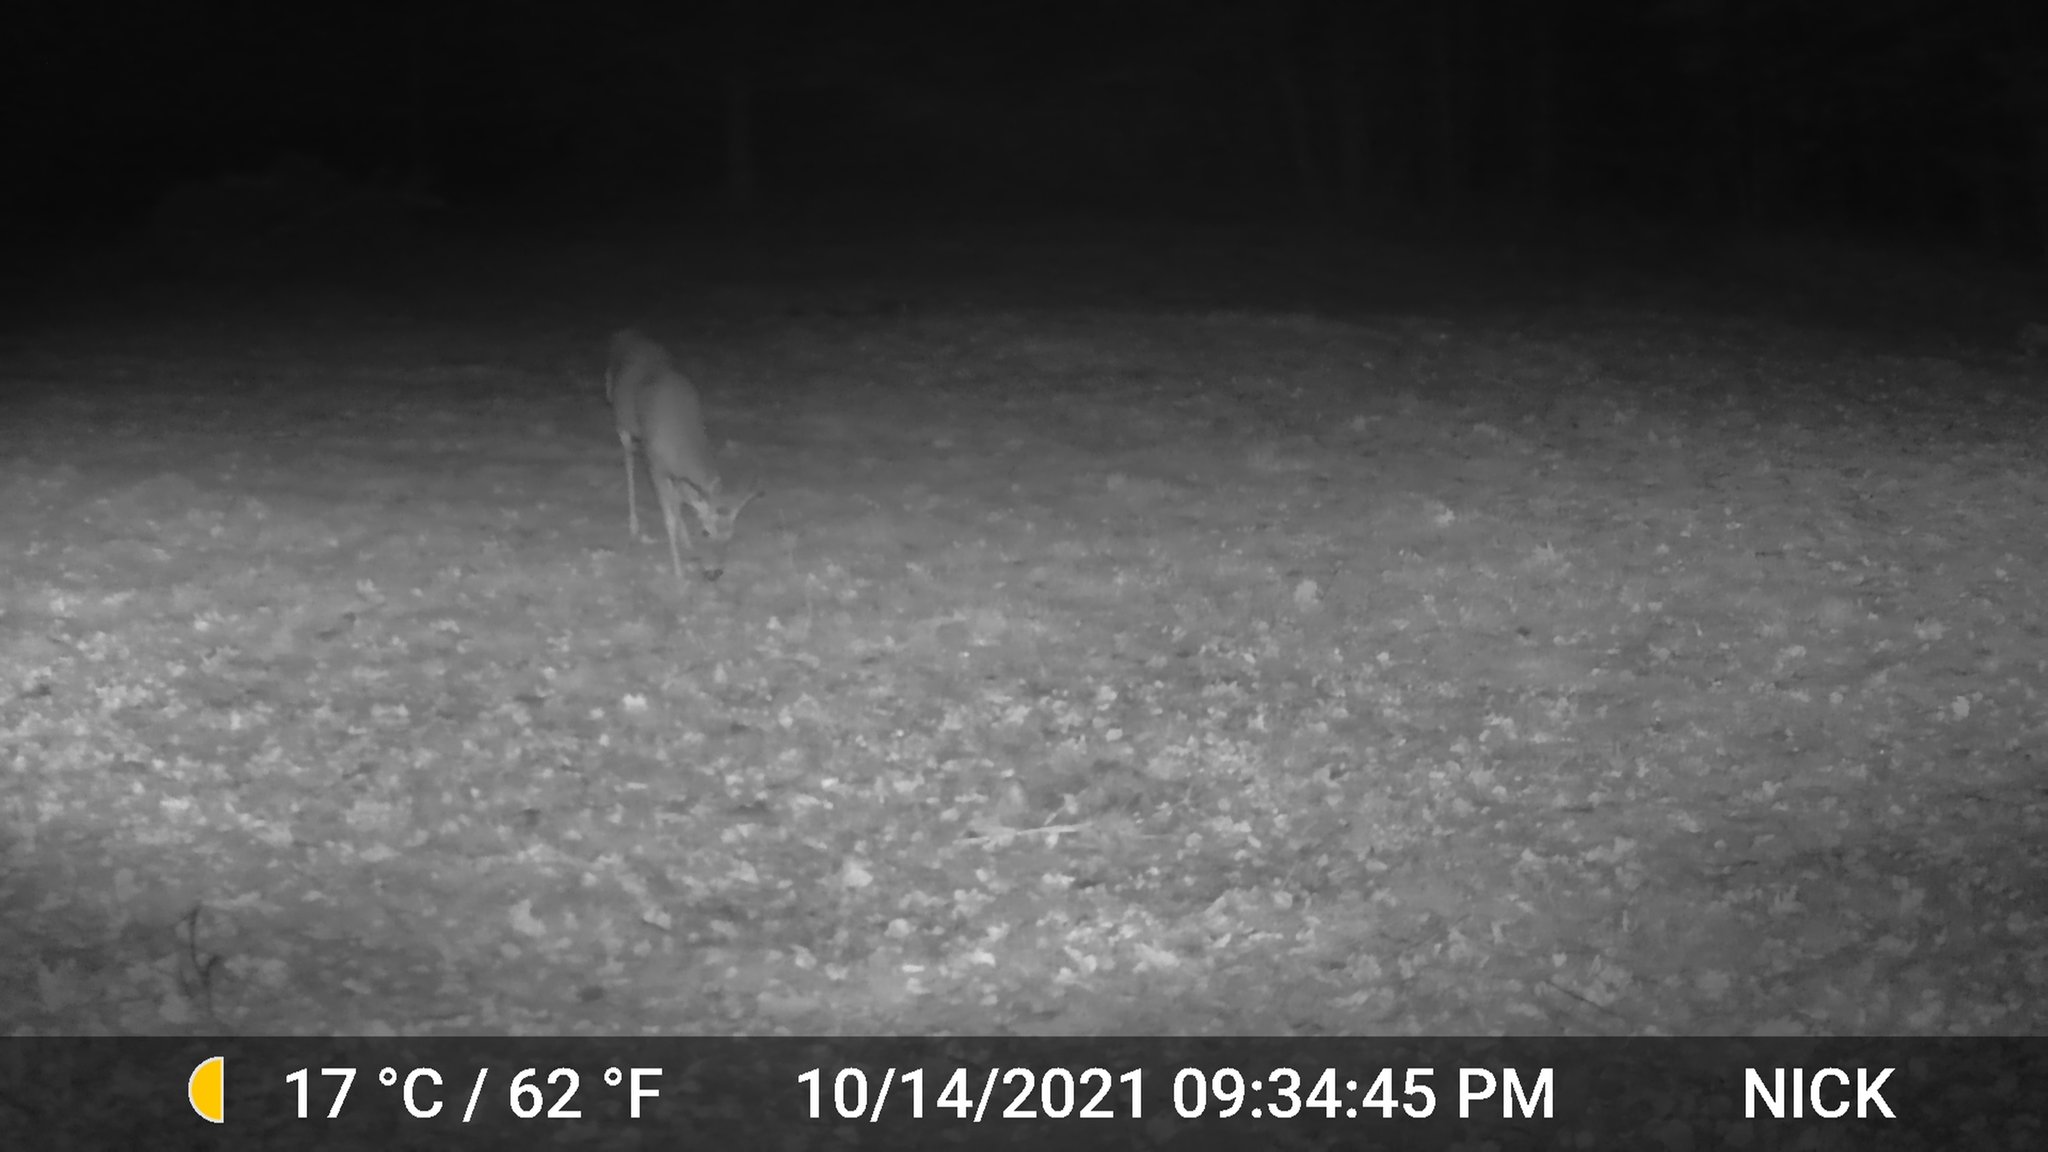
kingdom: Animalia
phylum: Chordata
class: Mammalia
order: Artiodactyla
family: Cervidae
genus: Odocoileus
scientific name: Odocoileus virginianus
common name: White-tailed deer
